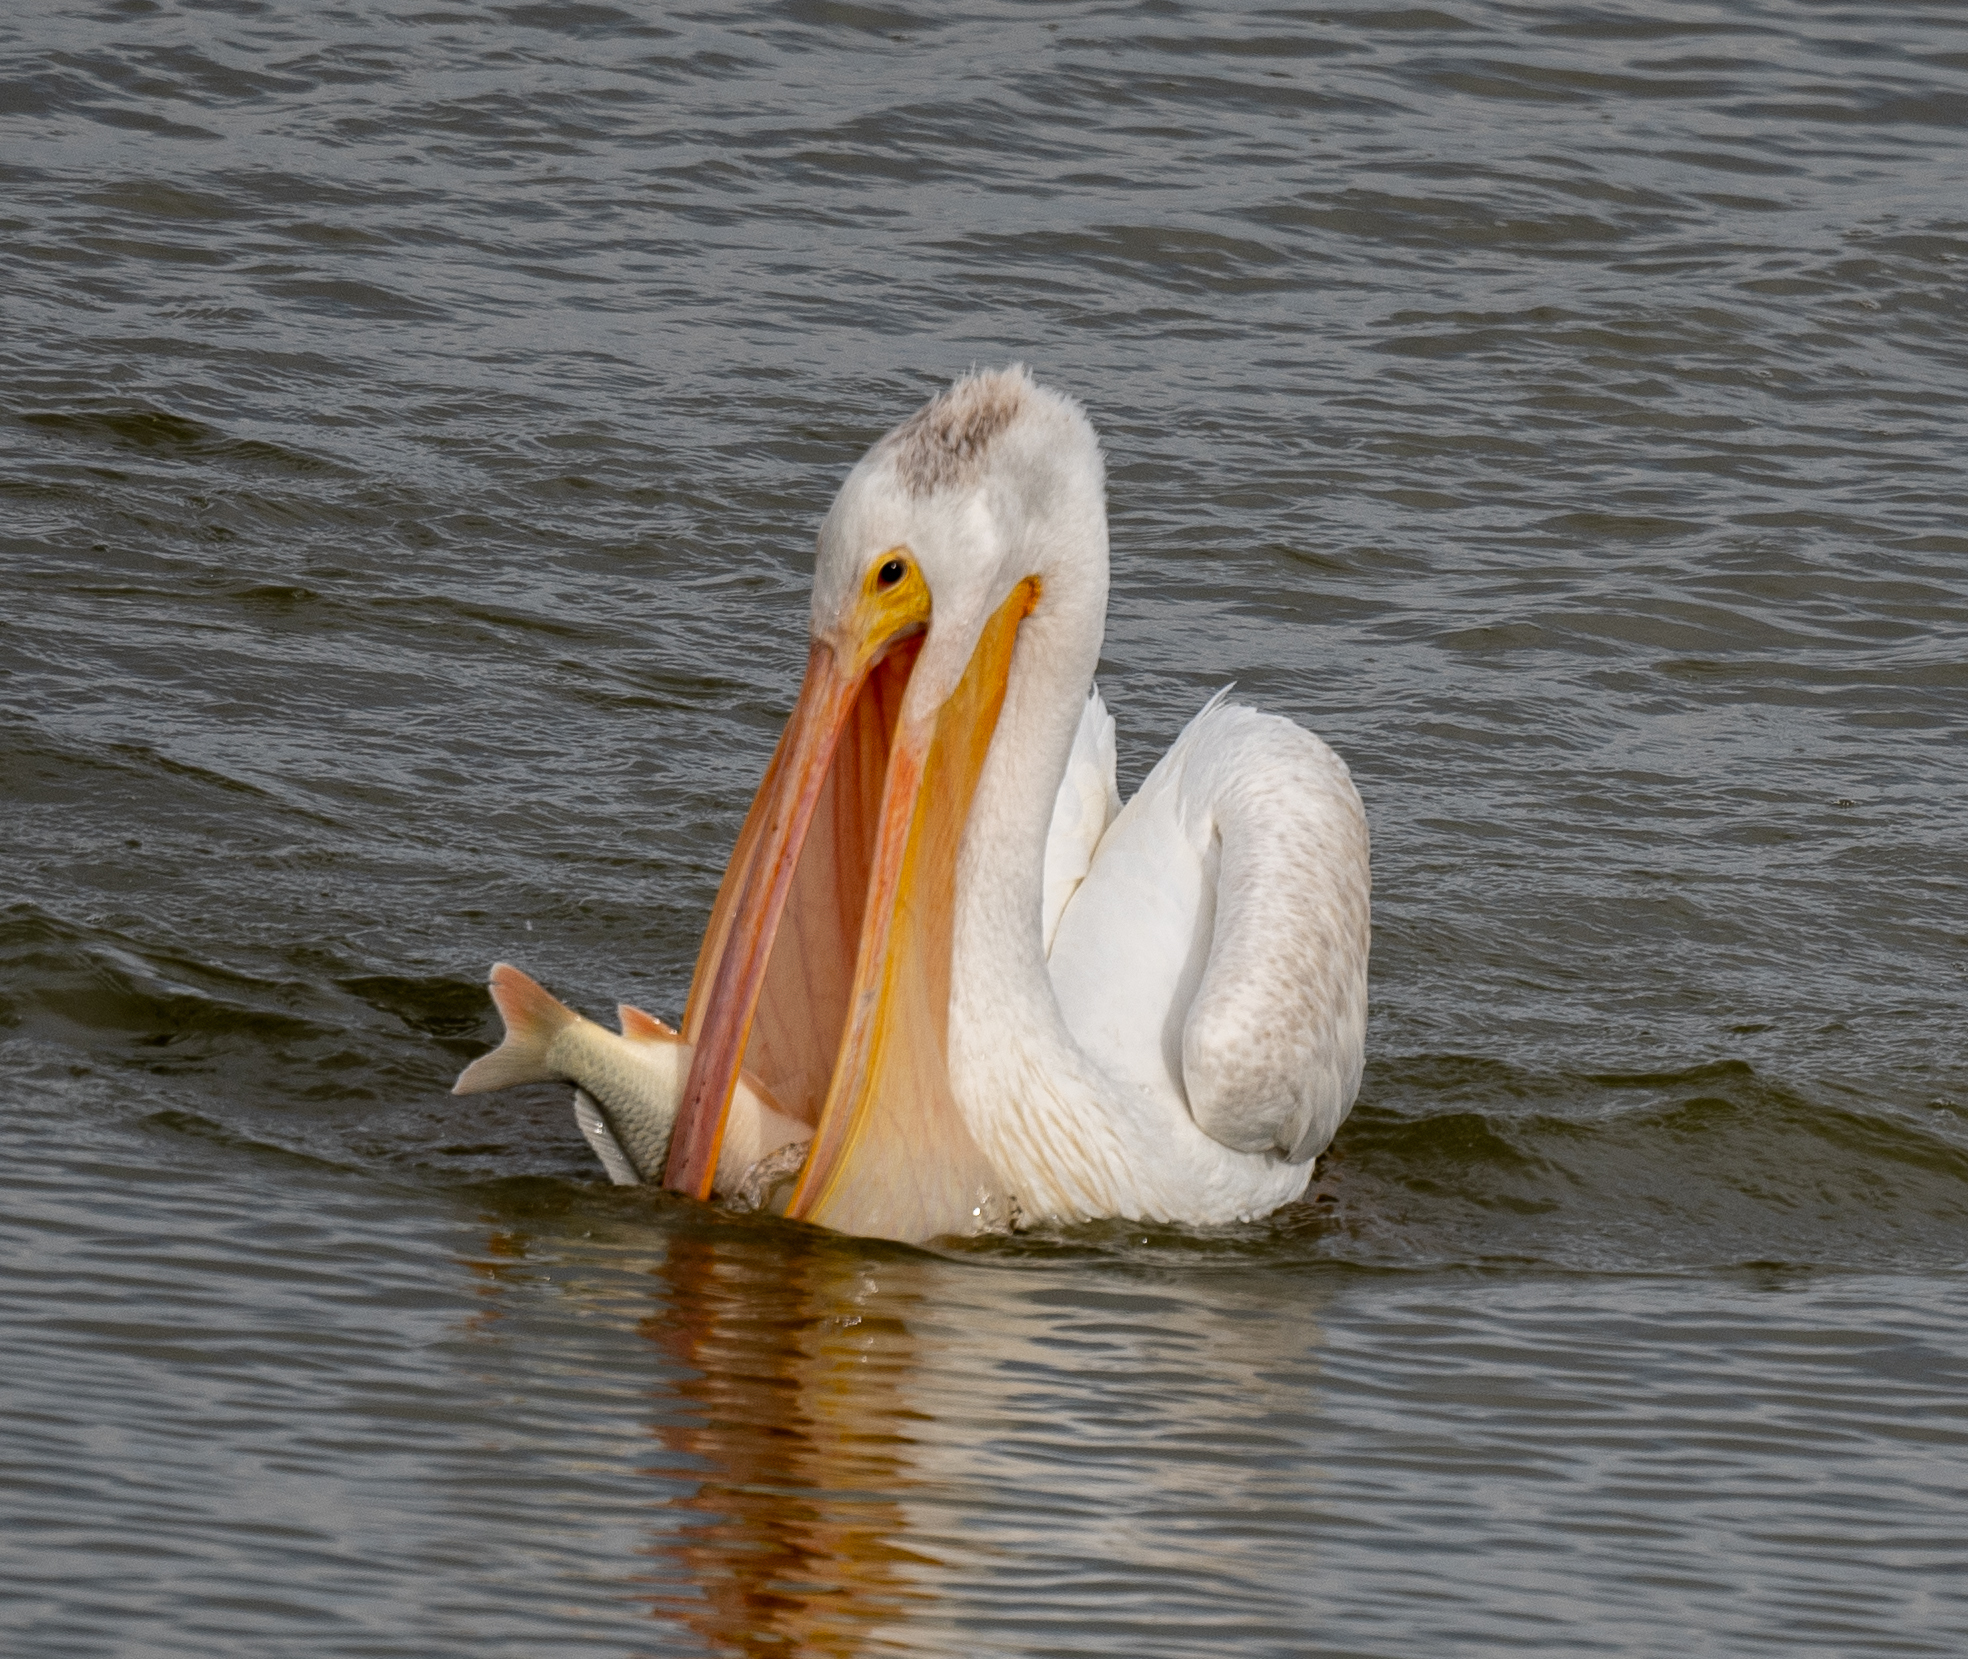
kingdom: Animalia
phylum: Chordata
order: Cypriniformes
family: Cyprinidae
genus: Cyprinus
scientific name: Cyprinus carpio
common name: Common carp
